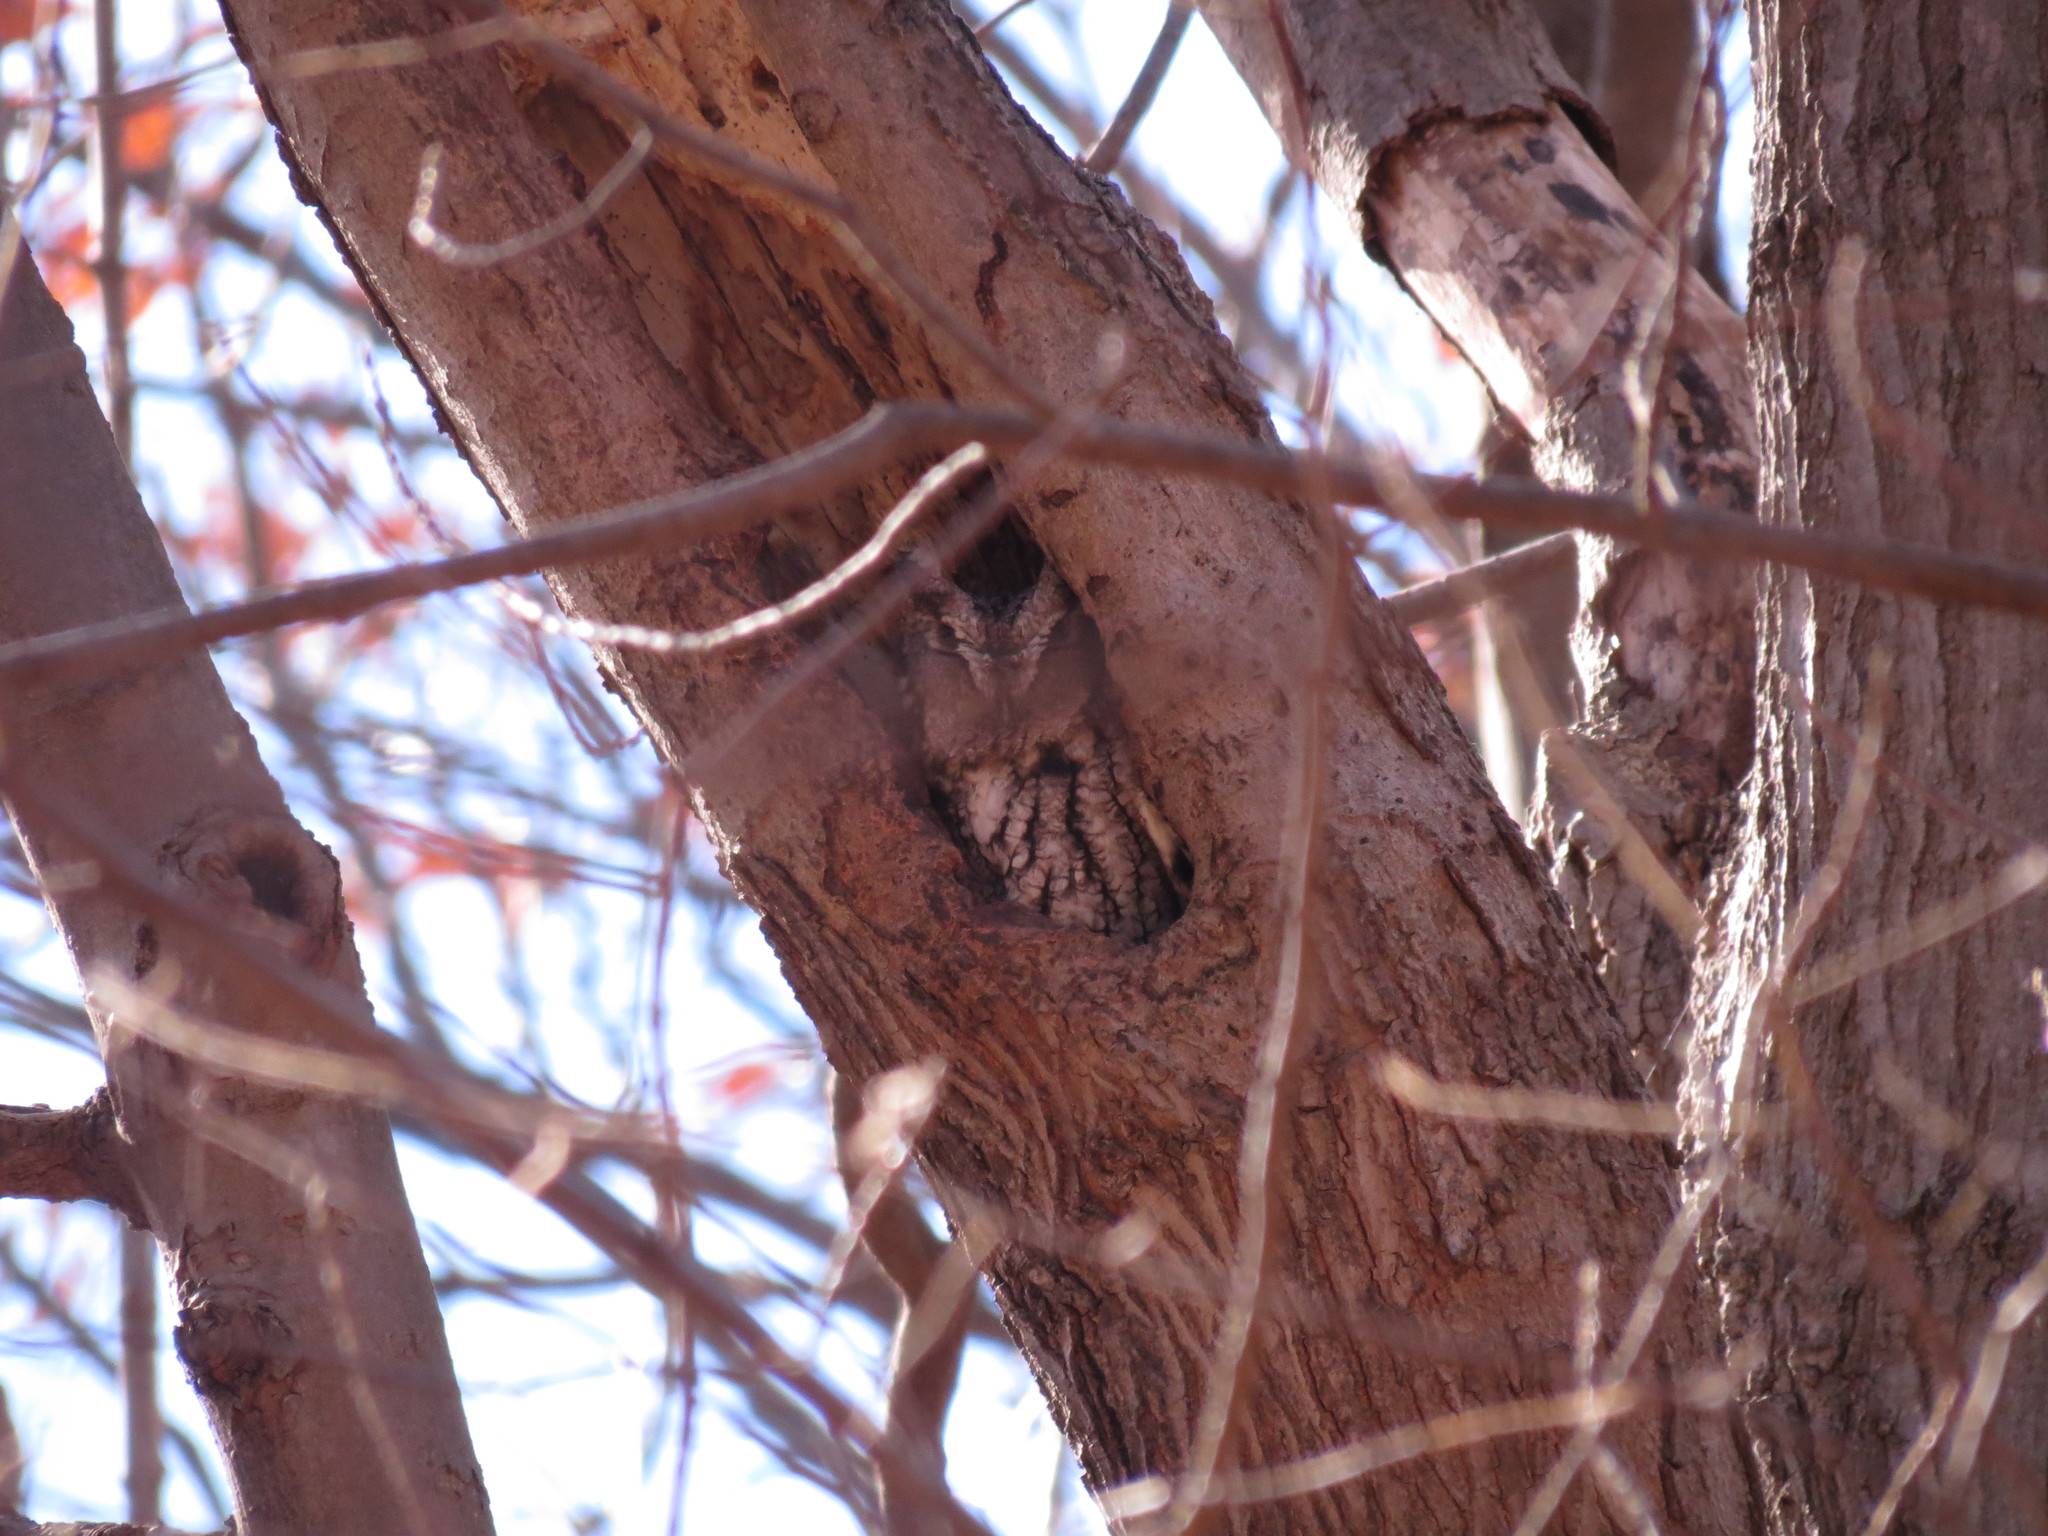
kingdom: Animalia
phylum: Chordata
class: Aves
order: Strigiformes
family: Strigidae
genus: Megascops
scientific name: Megascops asio
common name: Eastern screech-owl
